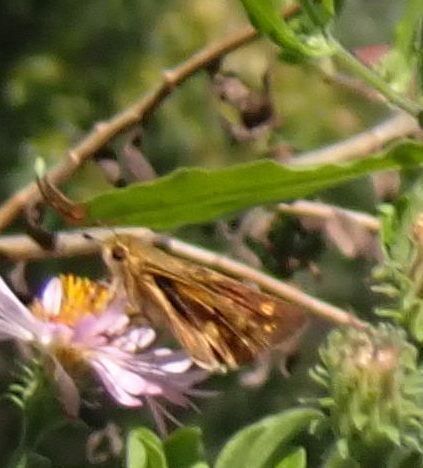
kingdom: Animalia
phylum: Arthropoda
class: Insecta
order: Lepidoptera
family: Hesperiidae
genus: Hylephila
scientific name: Hylephila phyleus
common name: Fiery skipper
